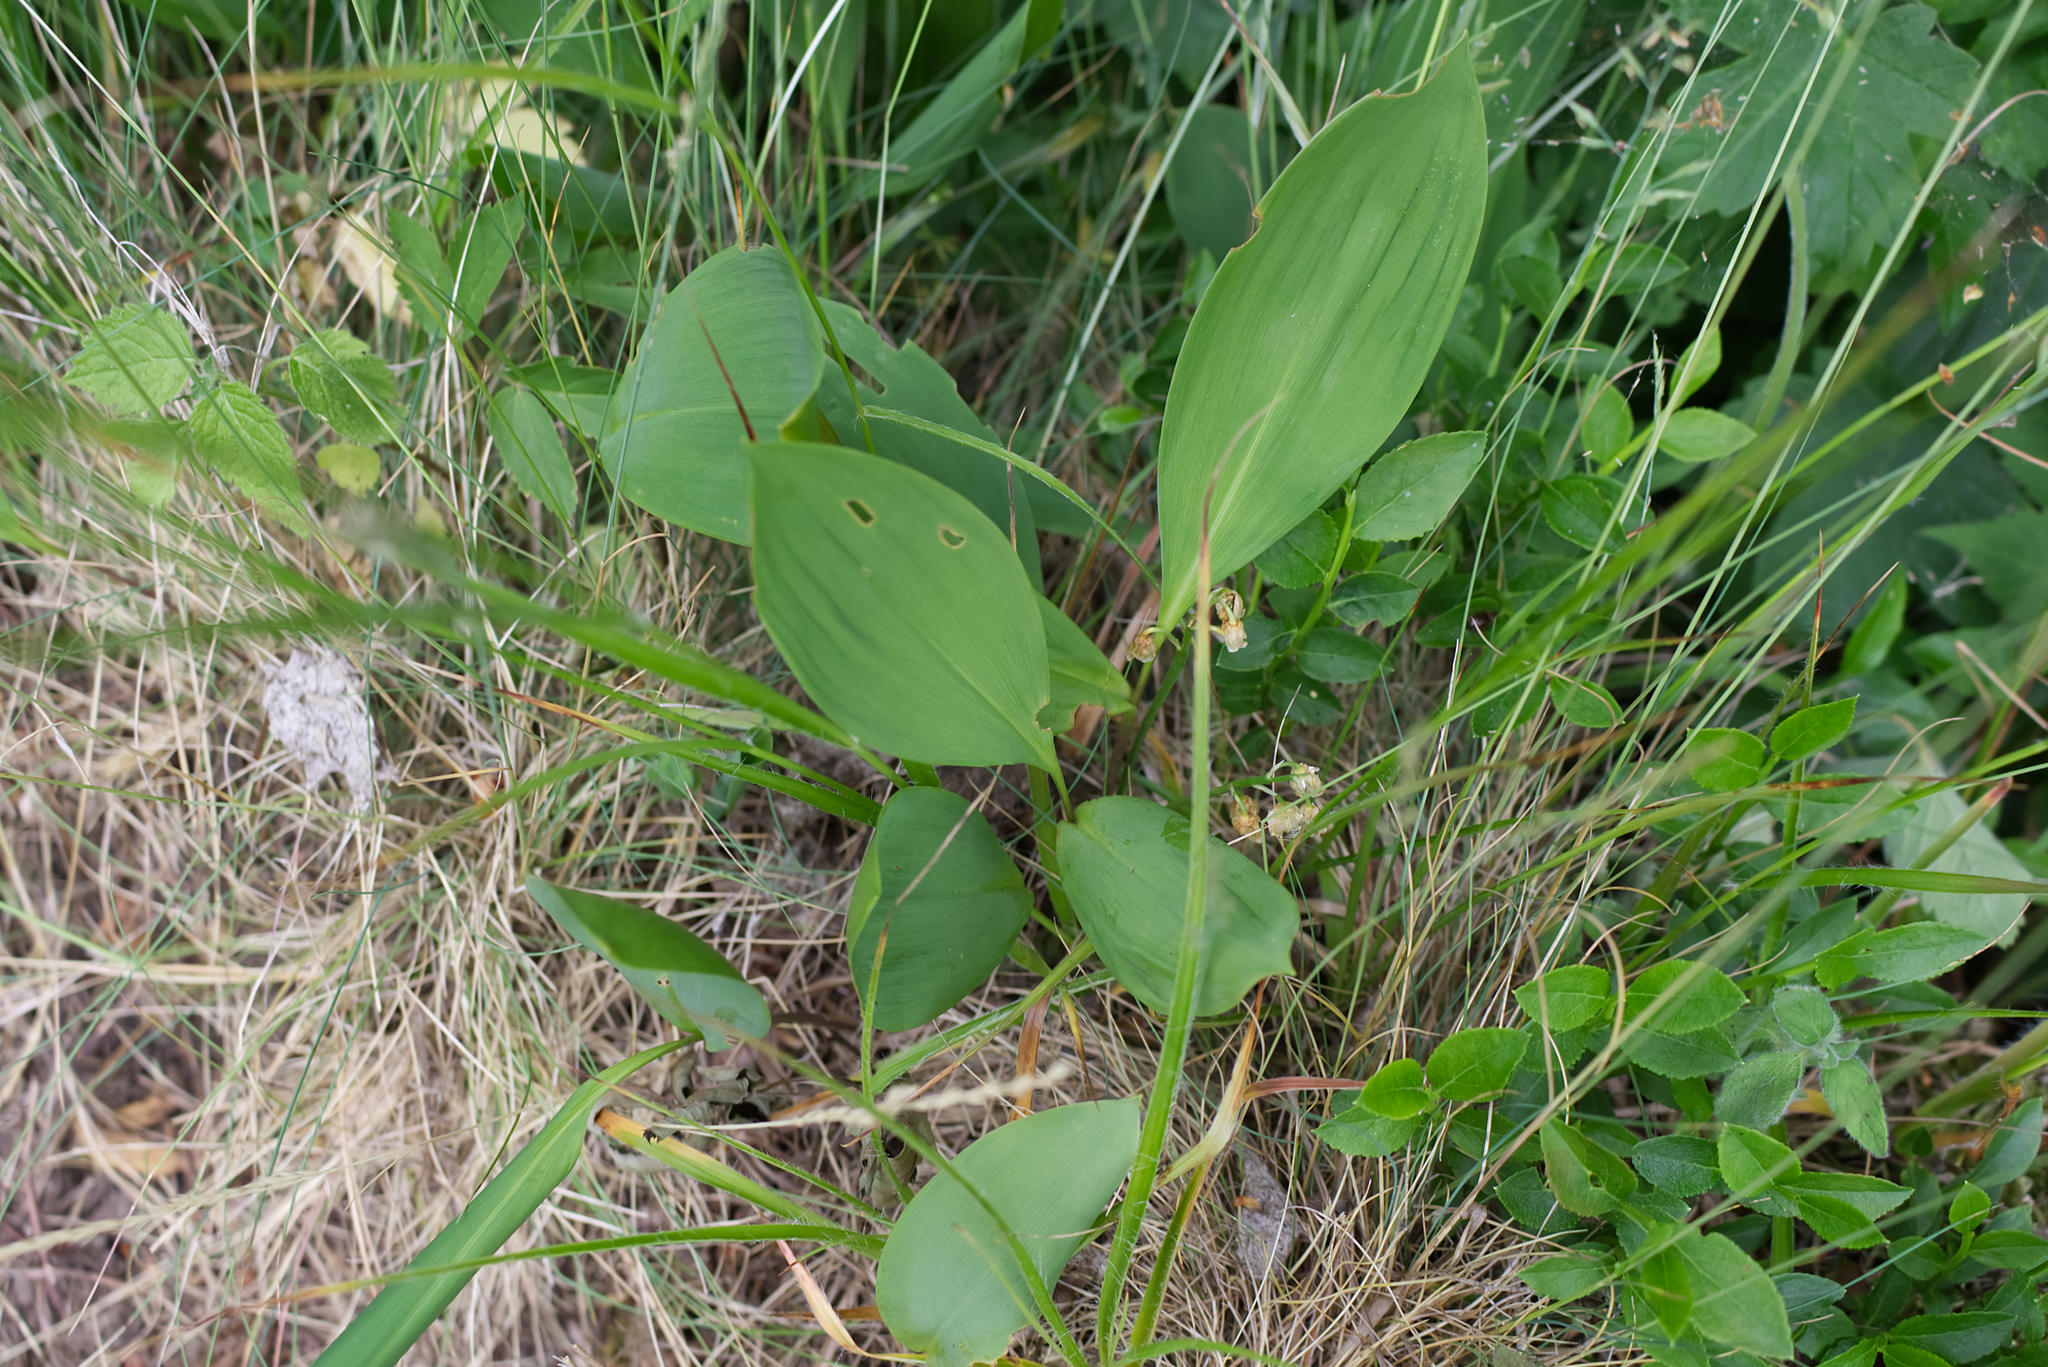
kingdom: Plantae
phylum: Tracheophyta
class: Liliopsida
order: Asparagales
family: Asparagaceae
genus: Convallaria
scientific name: Convallaria majalis
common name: Lily-of-the-valley
